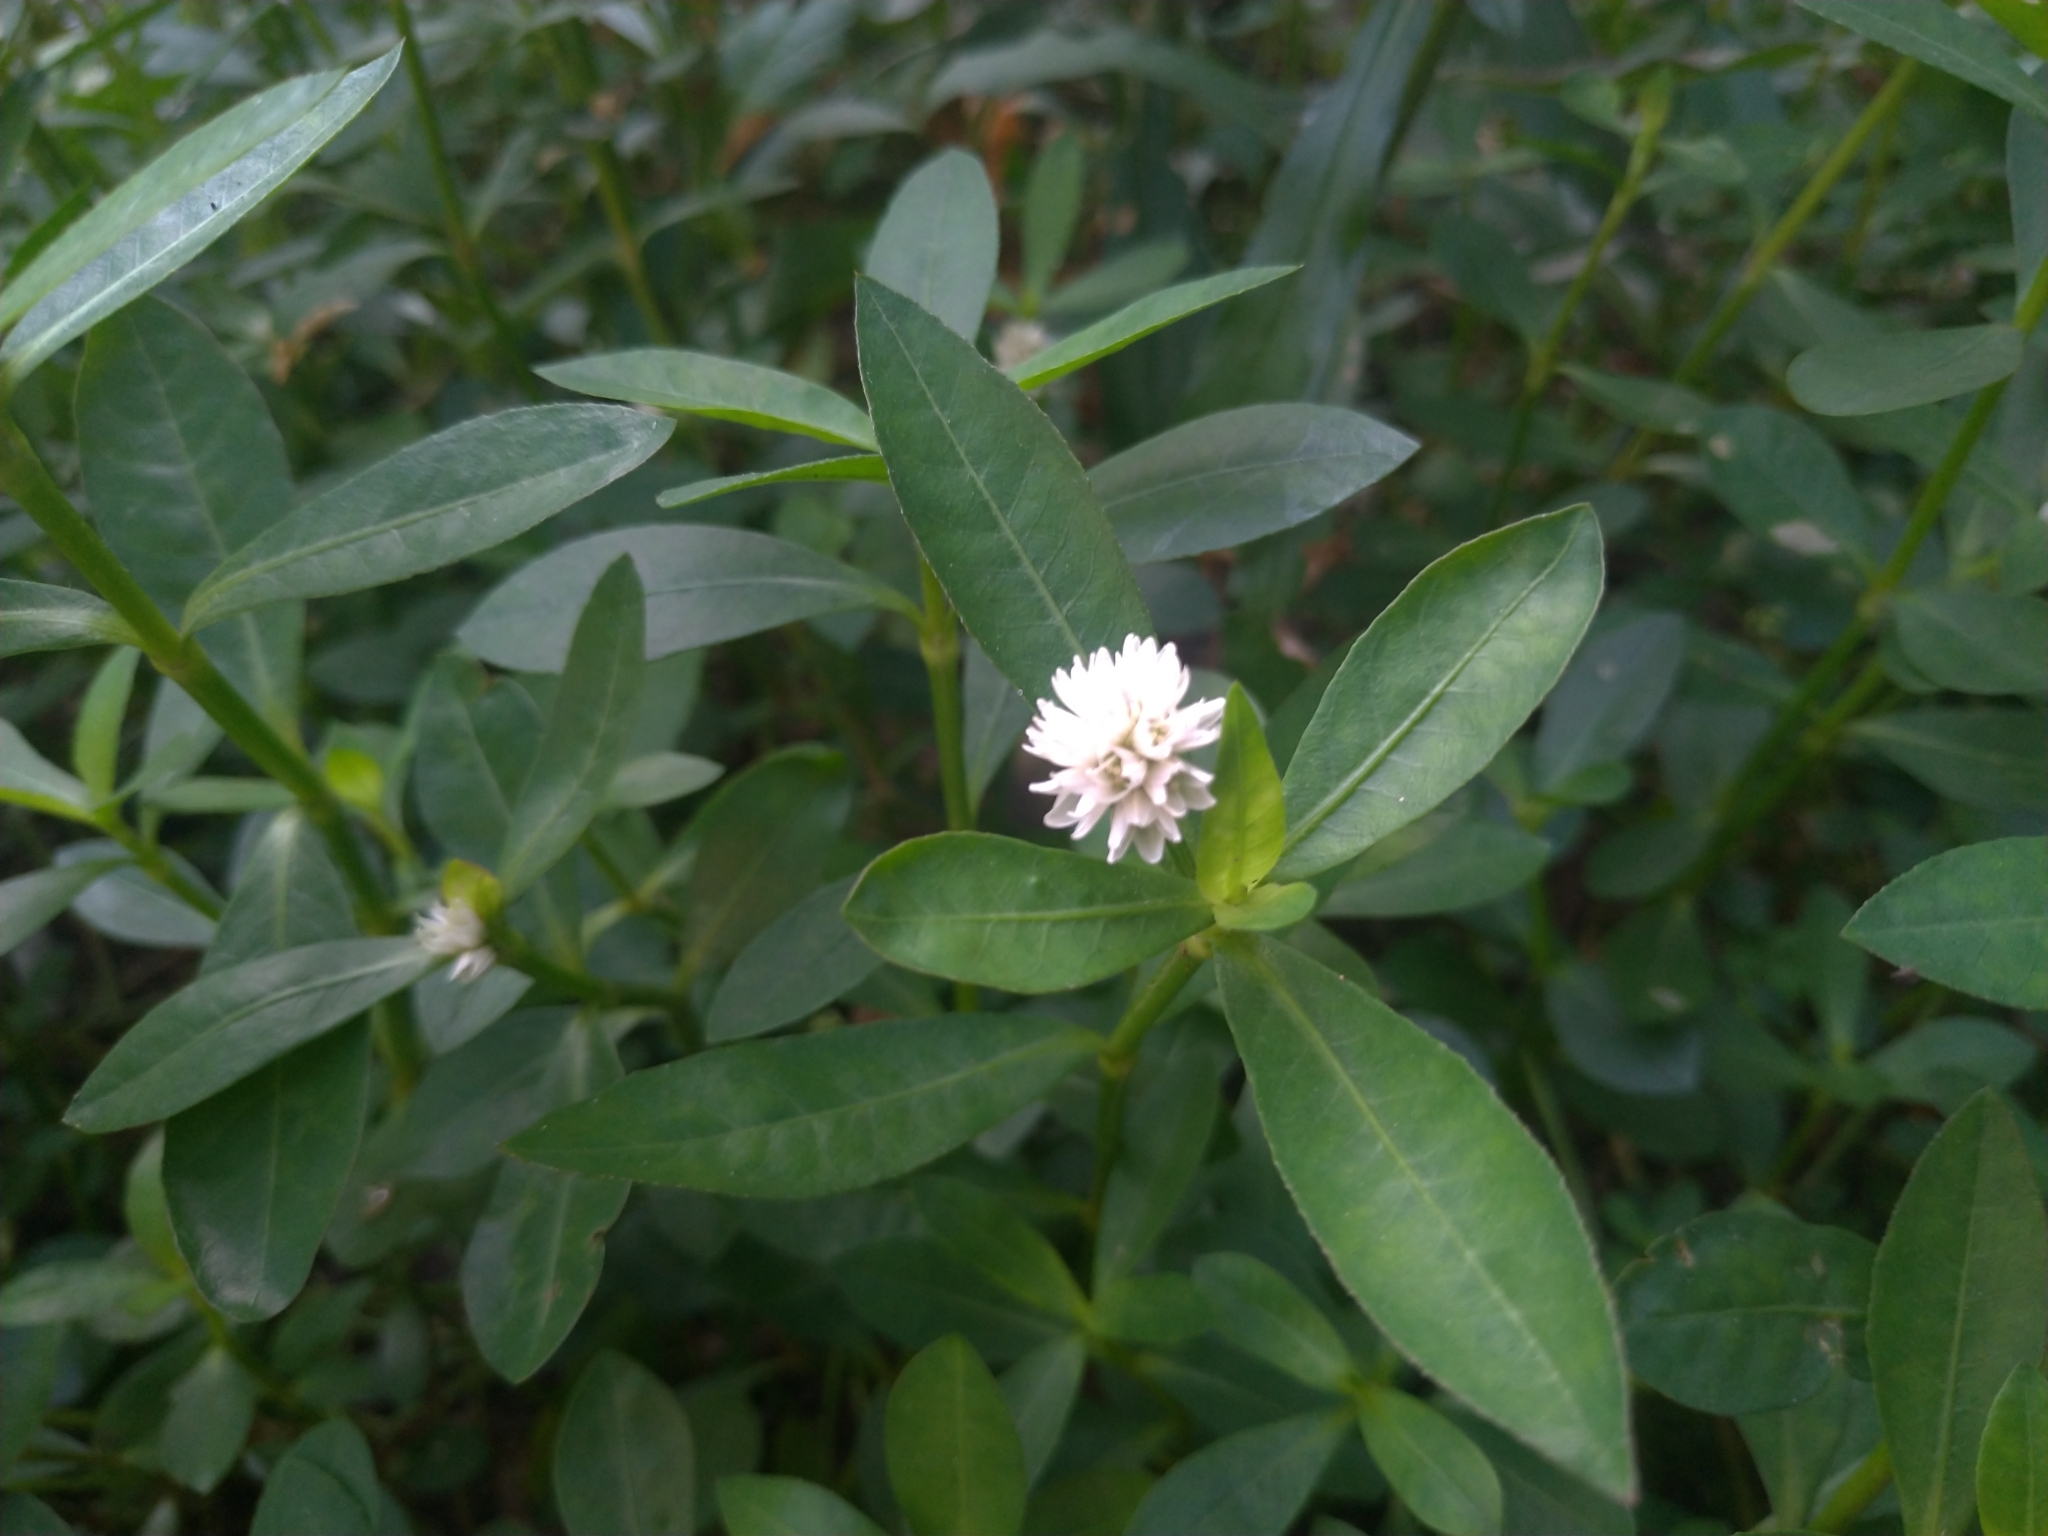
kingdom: Plantae
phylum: Tracheophyta
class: Magnoliopsida
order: Caryophyllales
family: Amaranthaceae
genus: Alternanthera
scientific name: Alternanthera philoxeroides
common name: Alligatorweed
